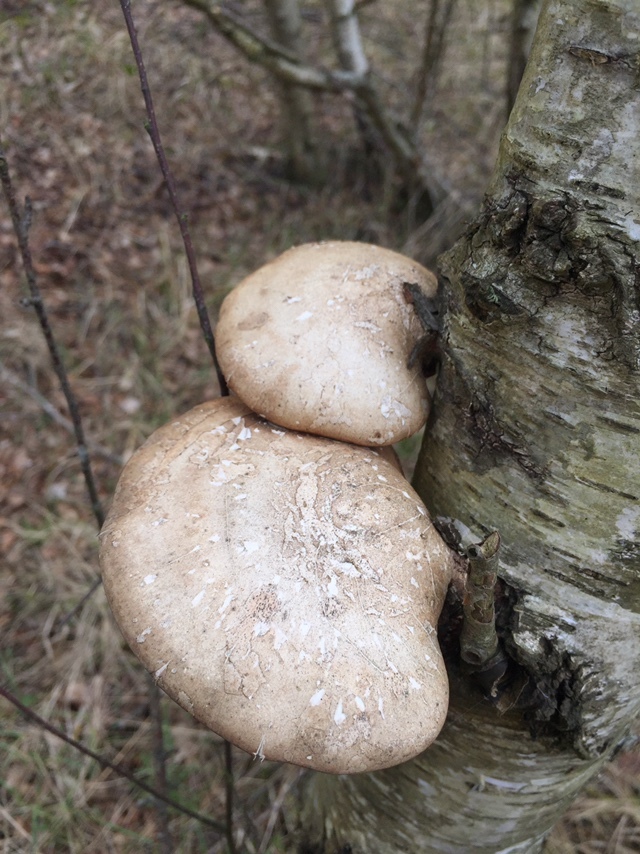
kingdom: Fungi
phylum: Basidiomycota
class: Agaricomycetes
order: Polyporales
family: Fomitopsidaceae
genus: Fomitopsis
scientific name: Fomitopsis betulina
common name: Birch polypore
